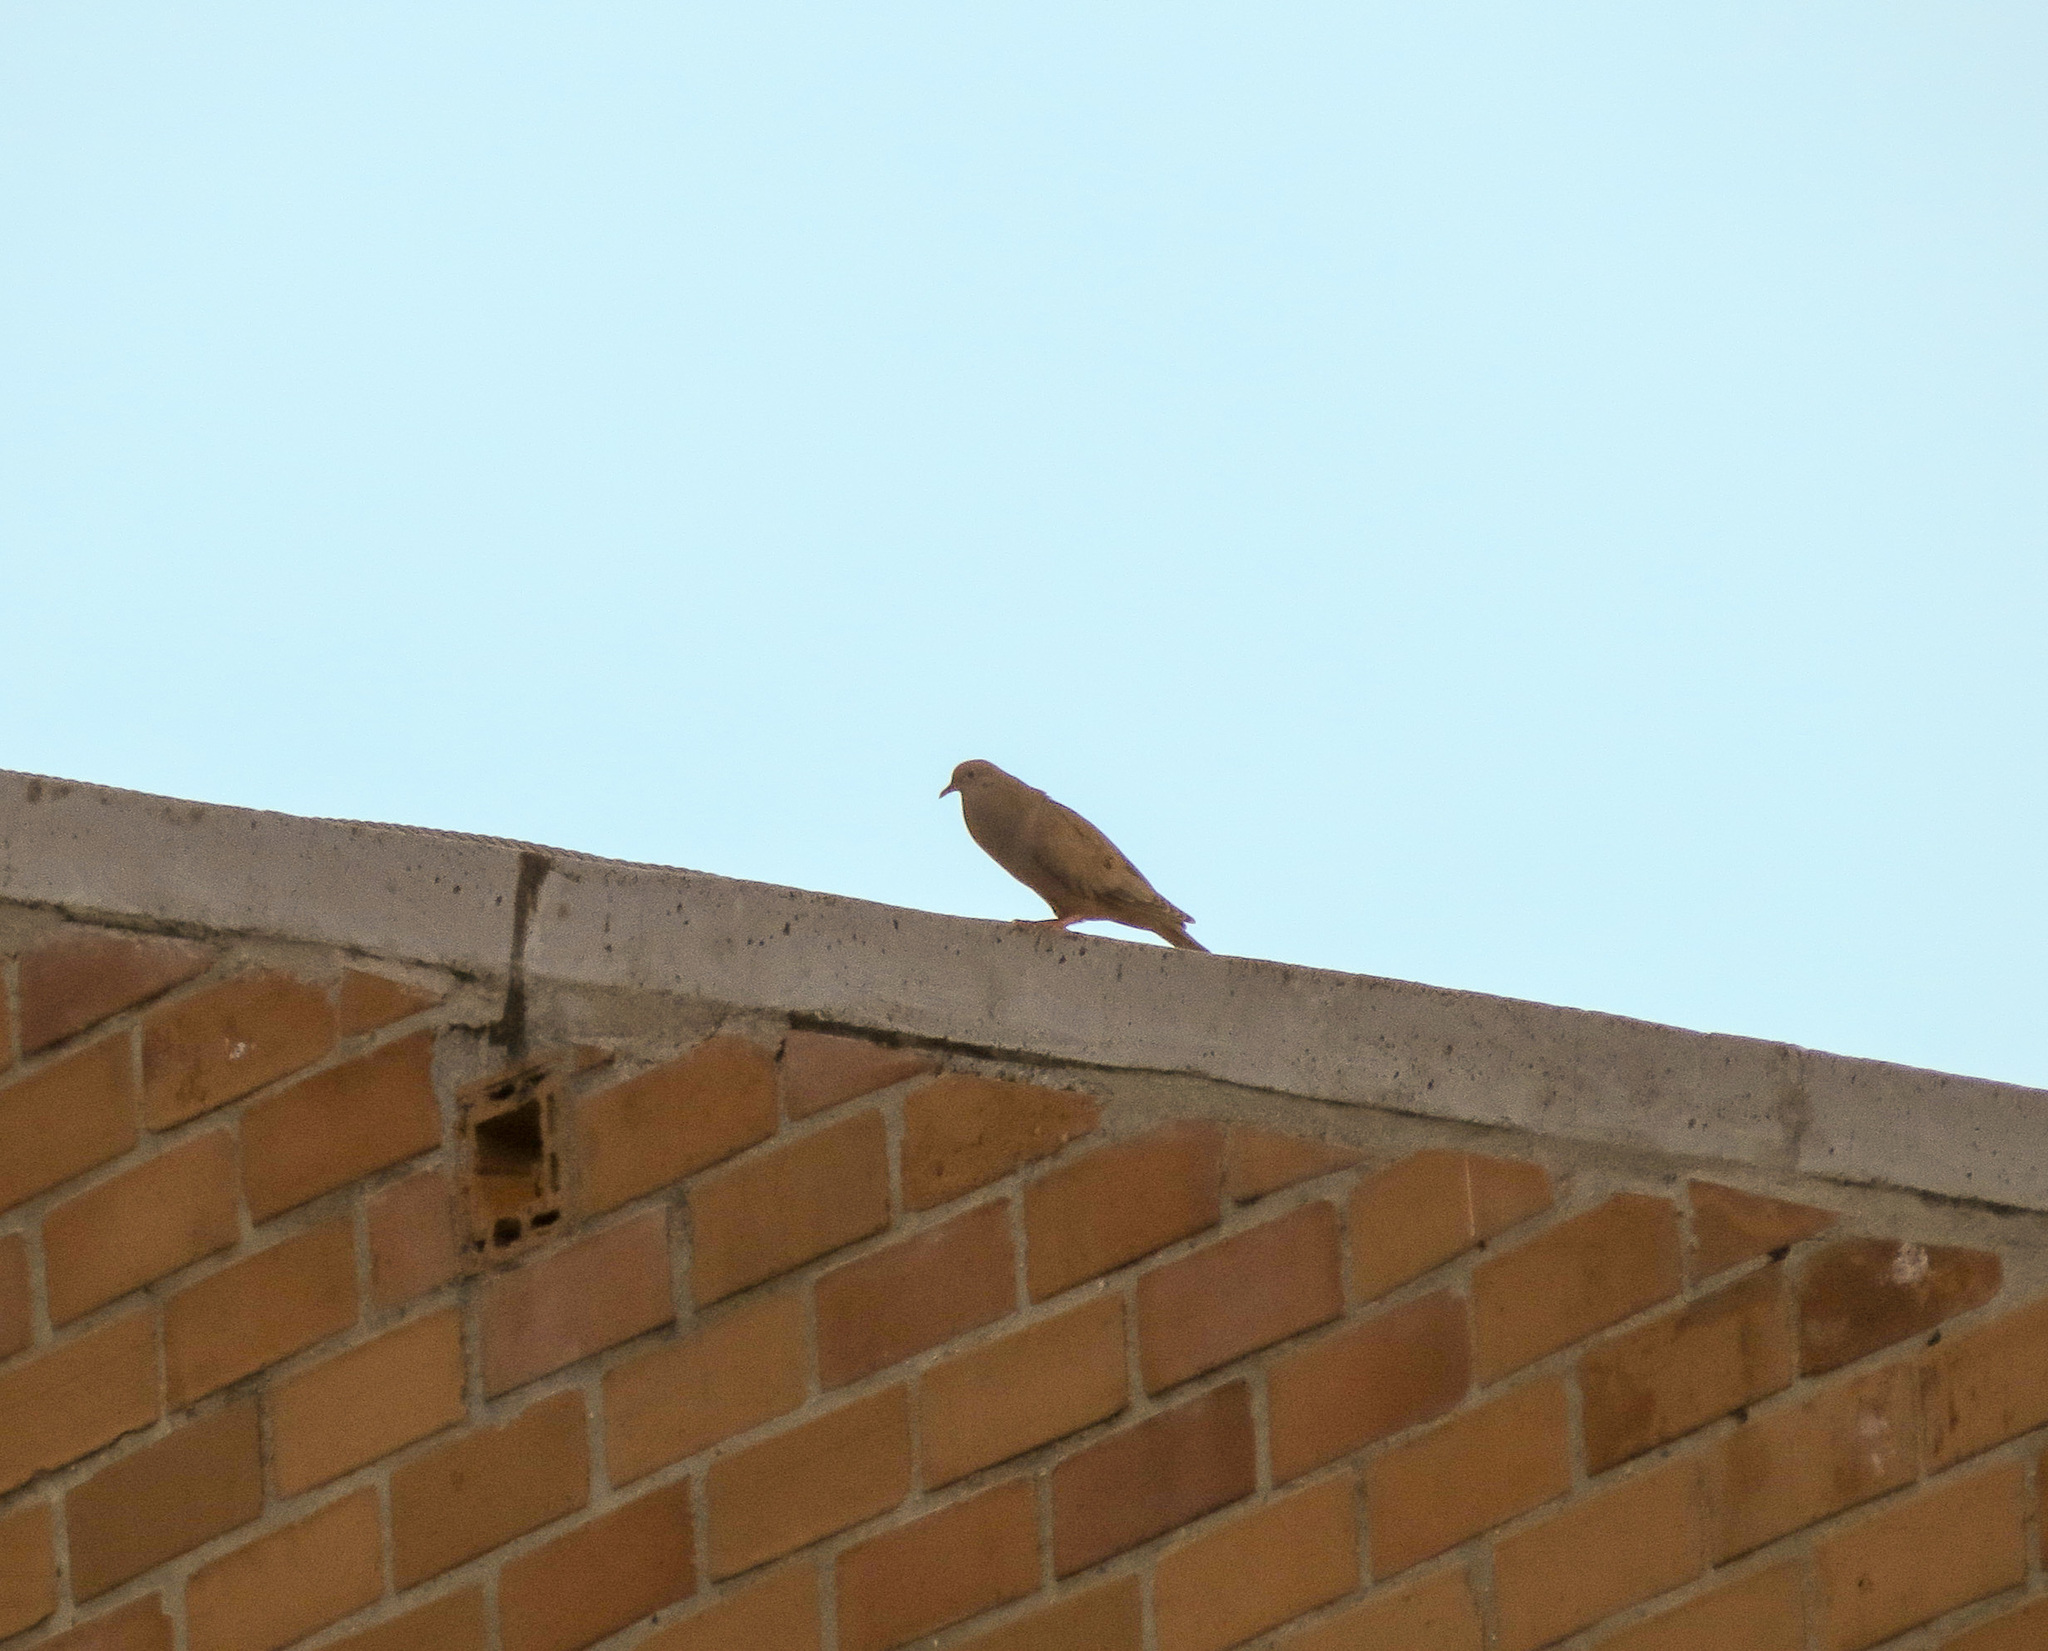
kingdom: Animalia
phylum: Chordata
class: Aves
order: Columbiformes
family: Columbidae
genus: Zenaida
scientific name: Zenaida auriculata
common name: Eared dove
